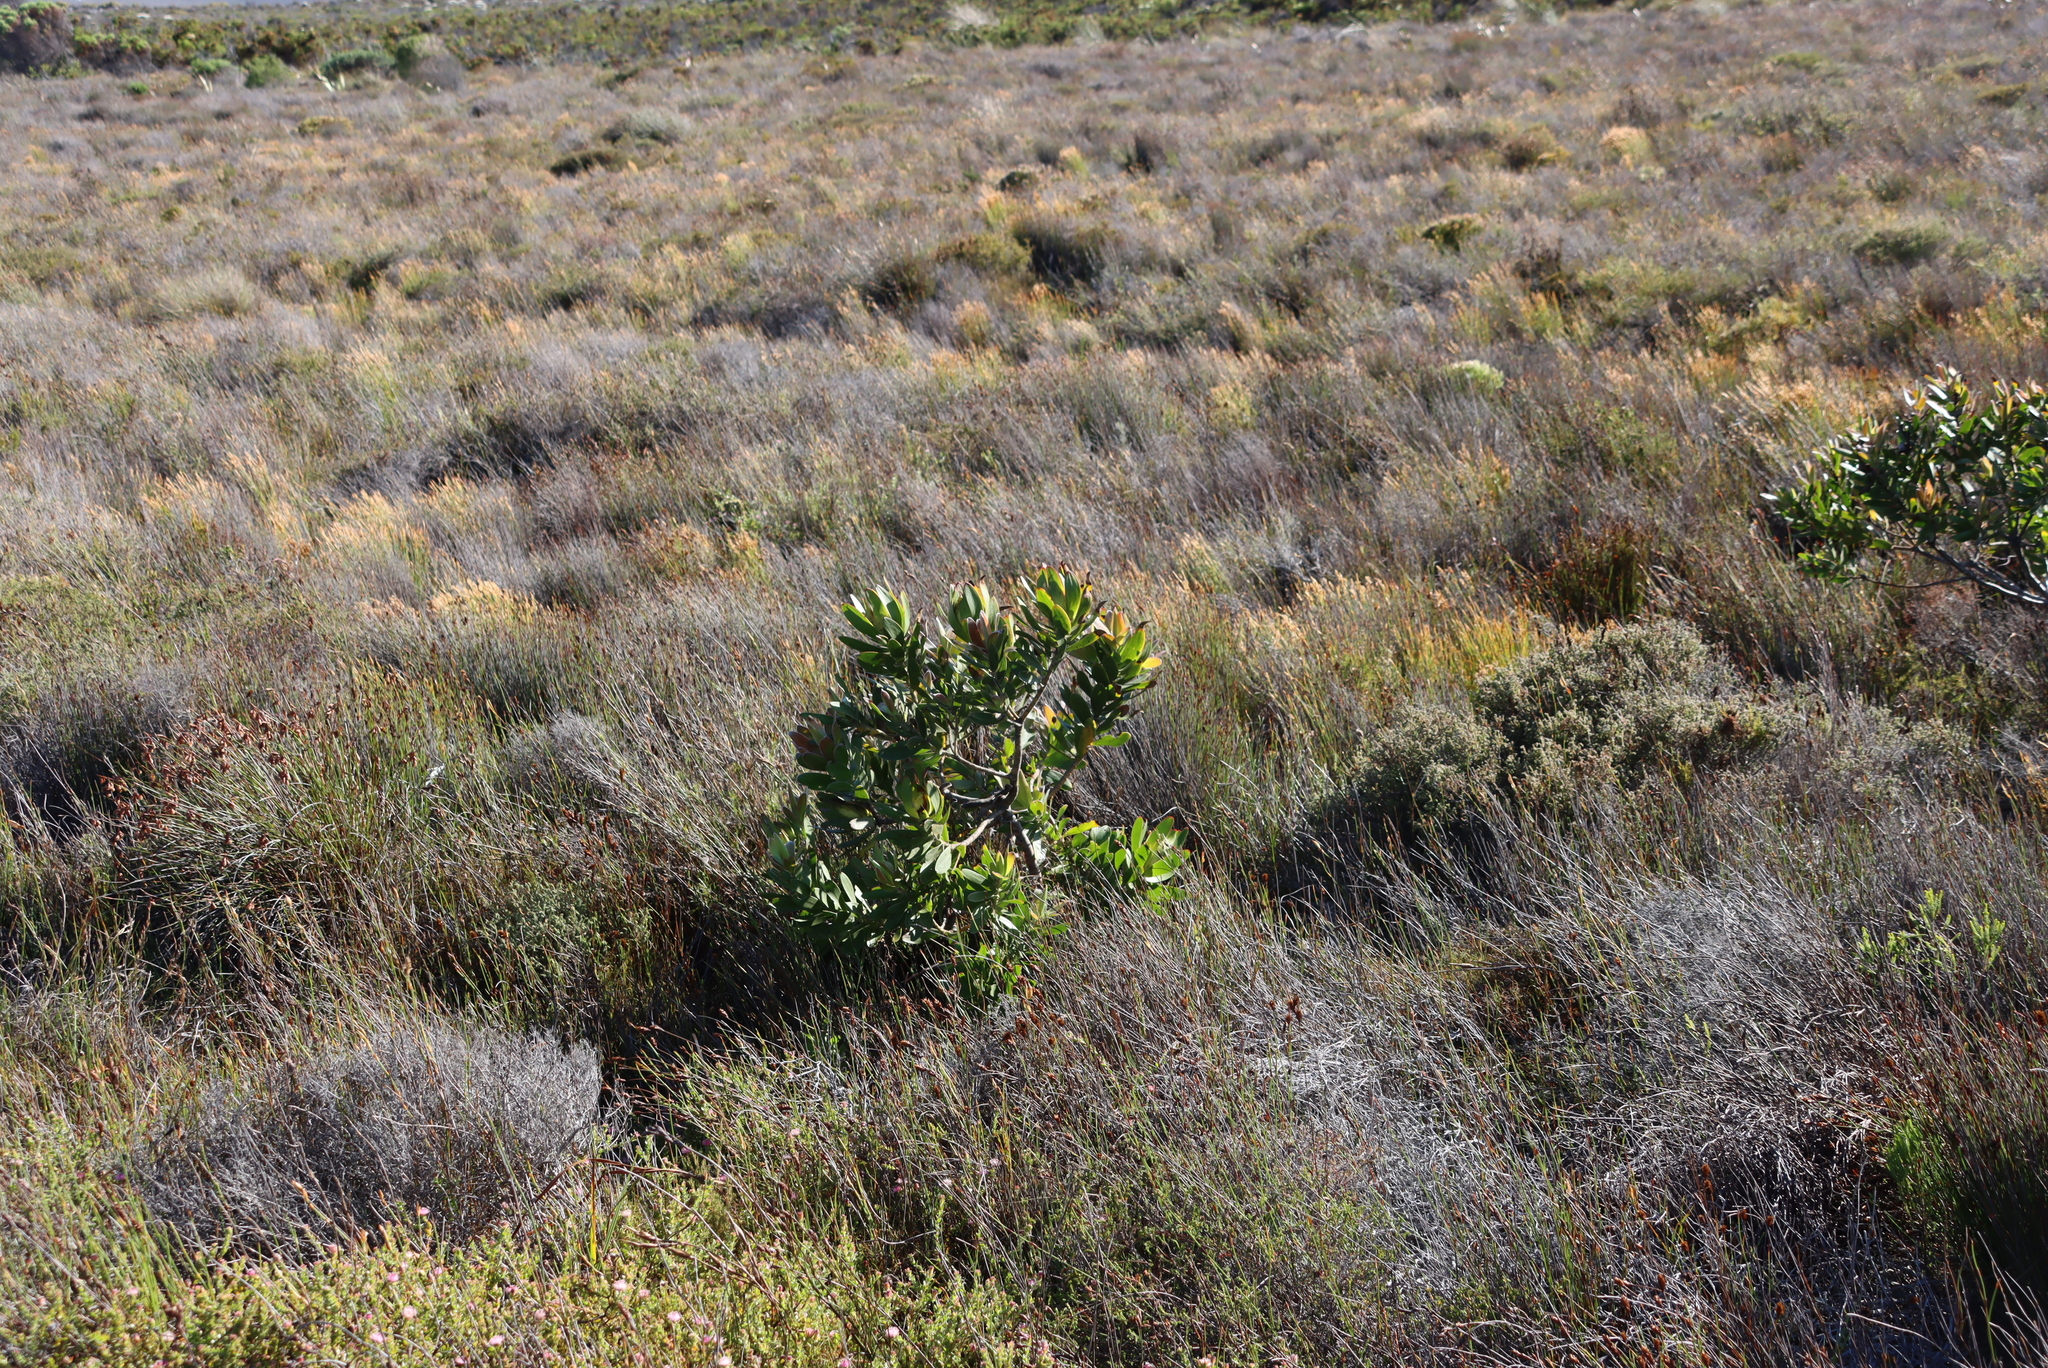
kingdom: Plantae
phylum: Tracheophyta
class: Magnoliopsida
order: Proteales
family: Proteaceae
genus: Leucadendron
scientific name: Leucadendron laureolum
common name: Golden sunshinebush
